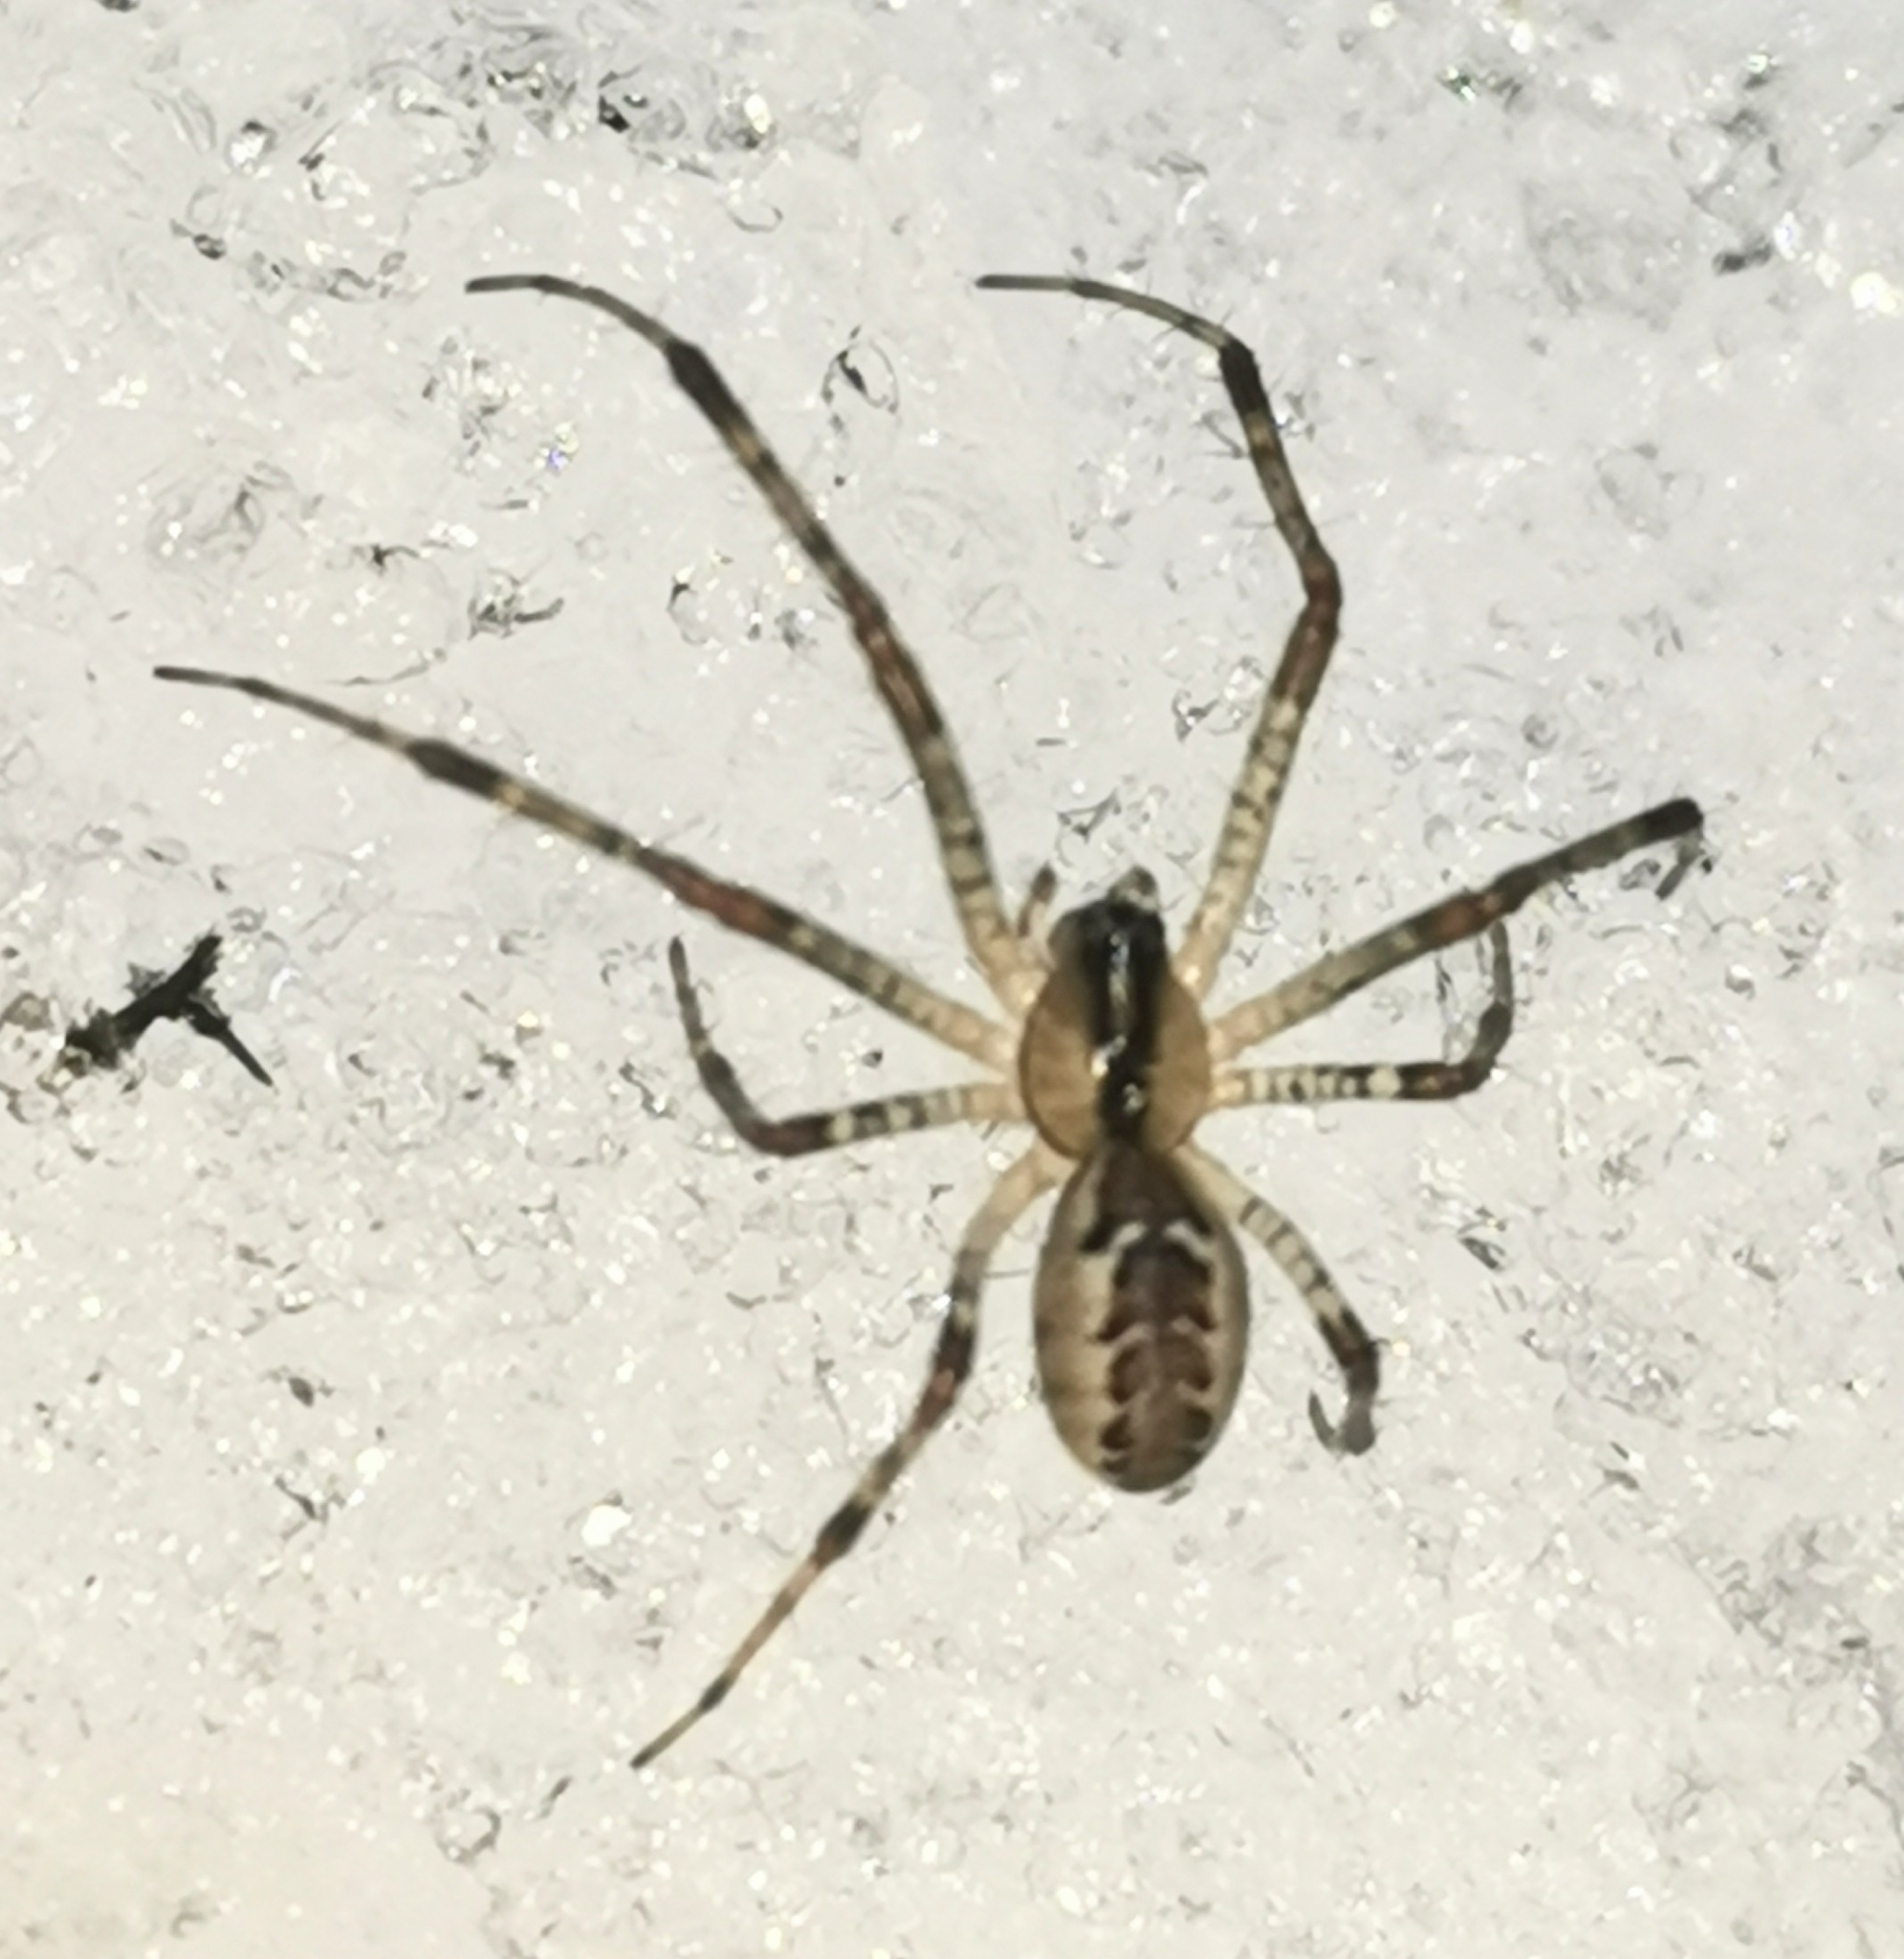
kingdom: Animalia
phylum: Arthropoda
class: Arachnida
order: Araneae
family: Linyphiidae
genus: Pityohyphantes
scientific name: Pityohyphantes phrygianus
